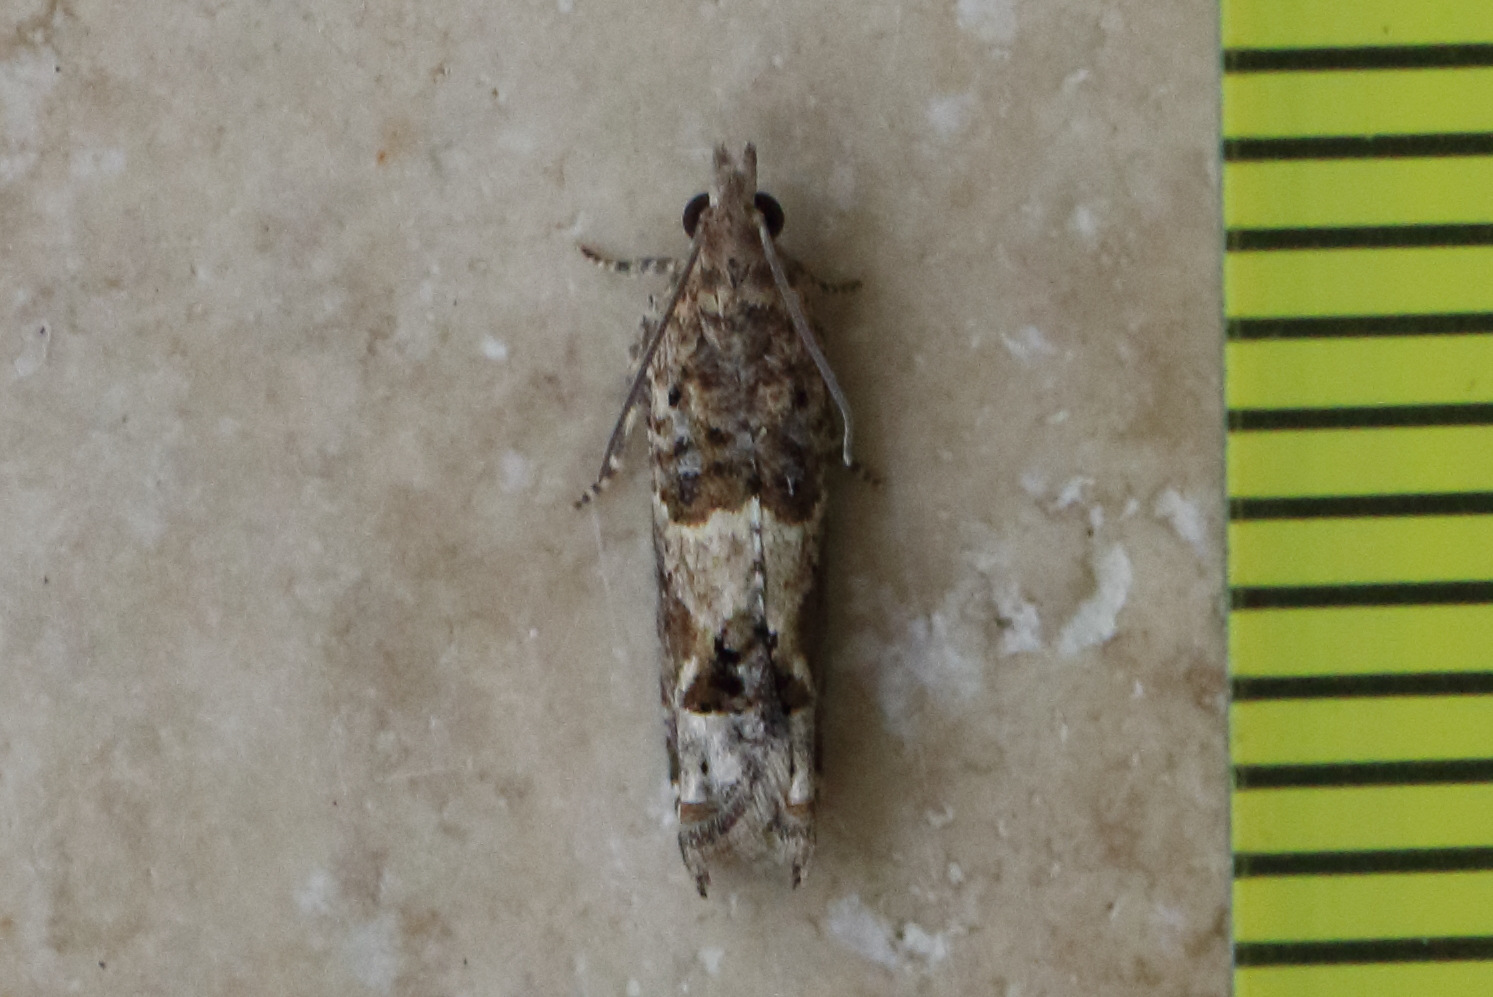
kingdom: Animalia
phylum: Arthropoda
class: Insecta
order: Lepidoptera
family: Tortricidae
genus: Crocidosema
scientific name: Crocidosema plebejana
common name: Southern bell
